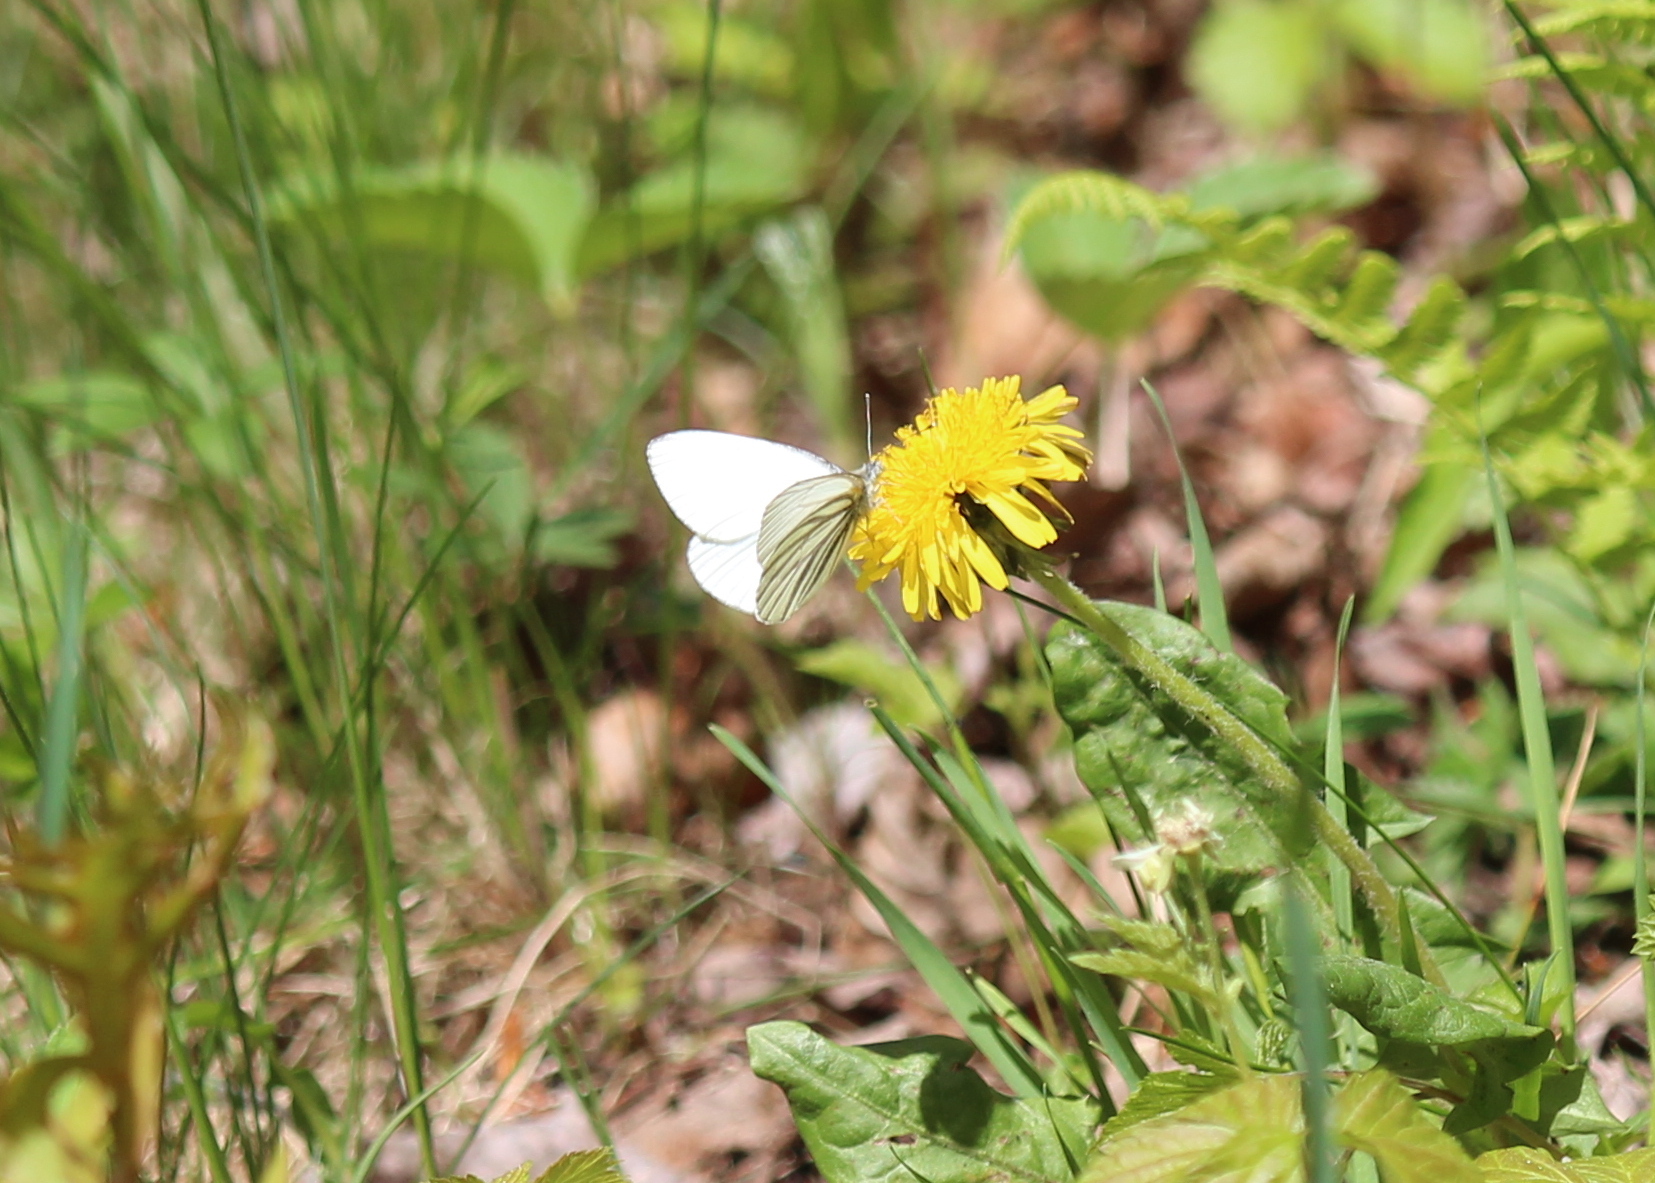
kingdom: Animalia
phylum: Arthropoda
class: Insecta
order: Lepidoptera
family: Pieridae
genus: Pieris
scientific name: Pieris oleracea
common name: Mustard white
